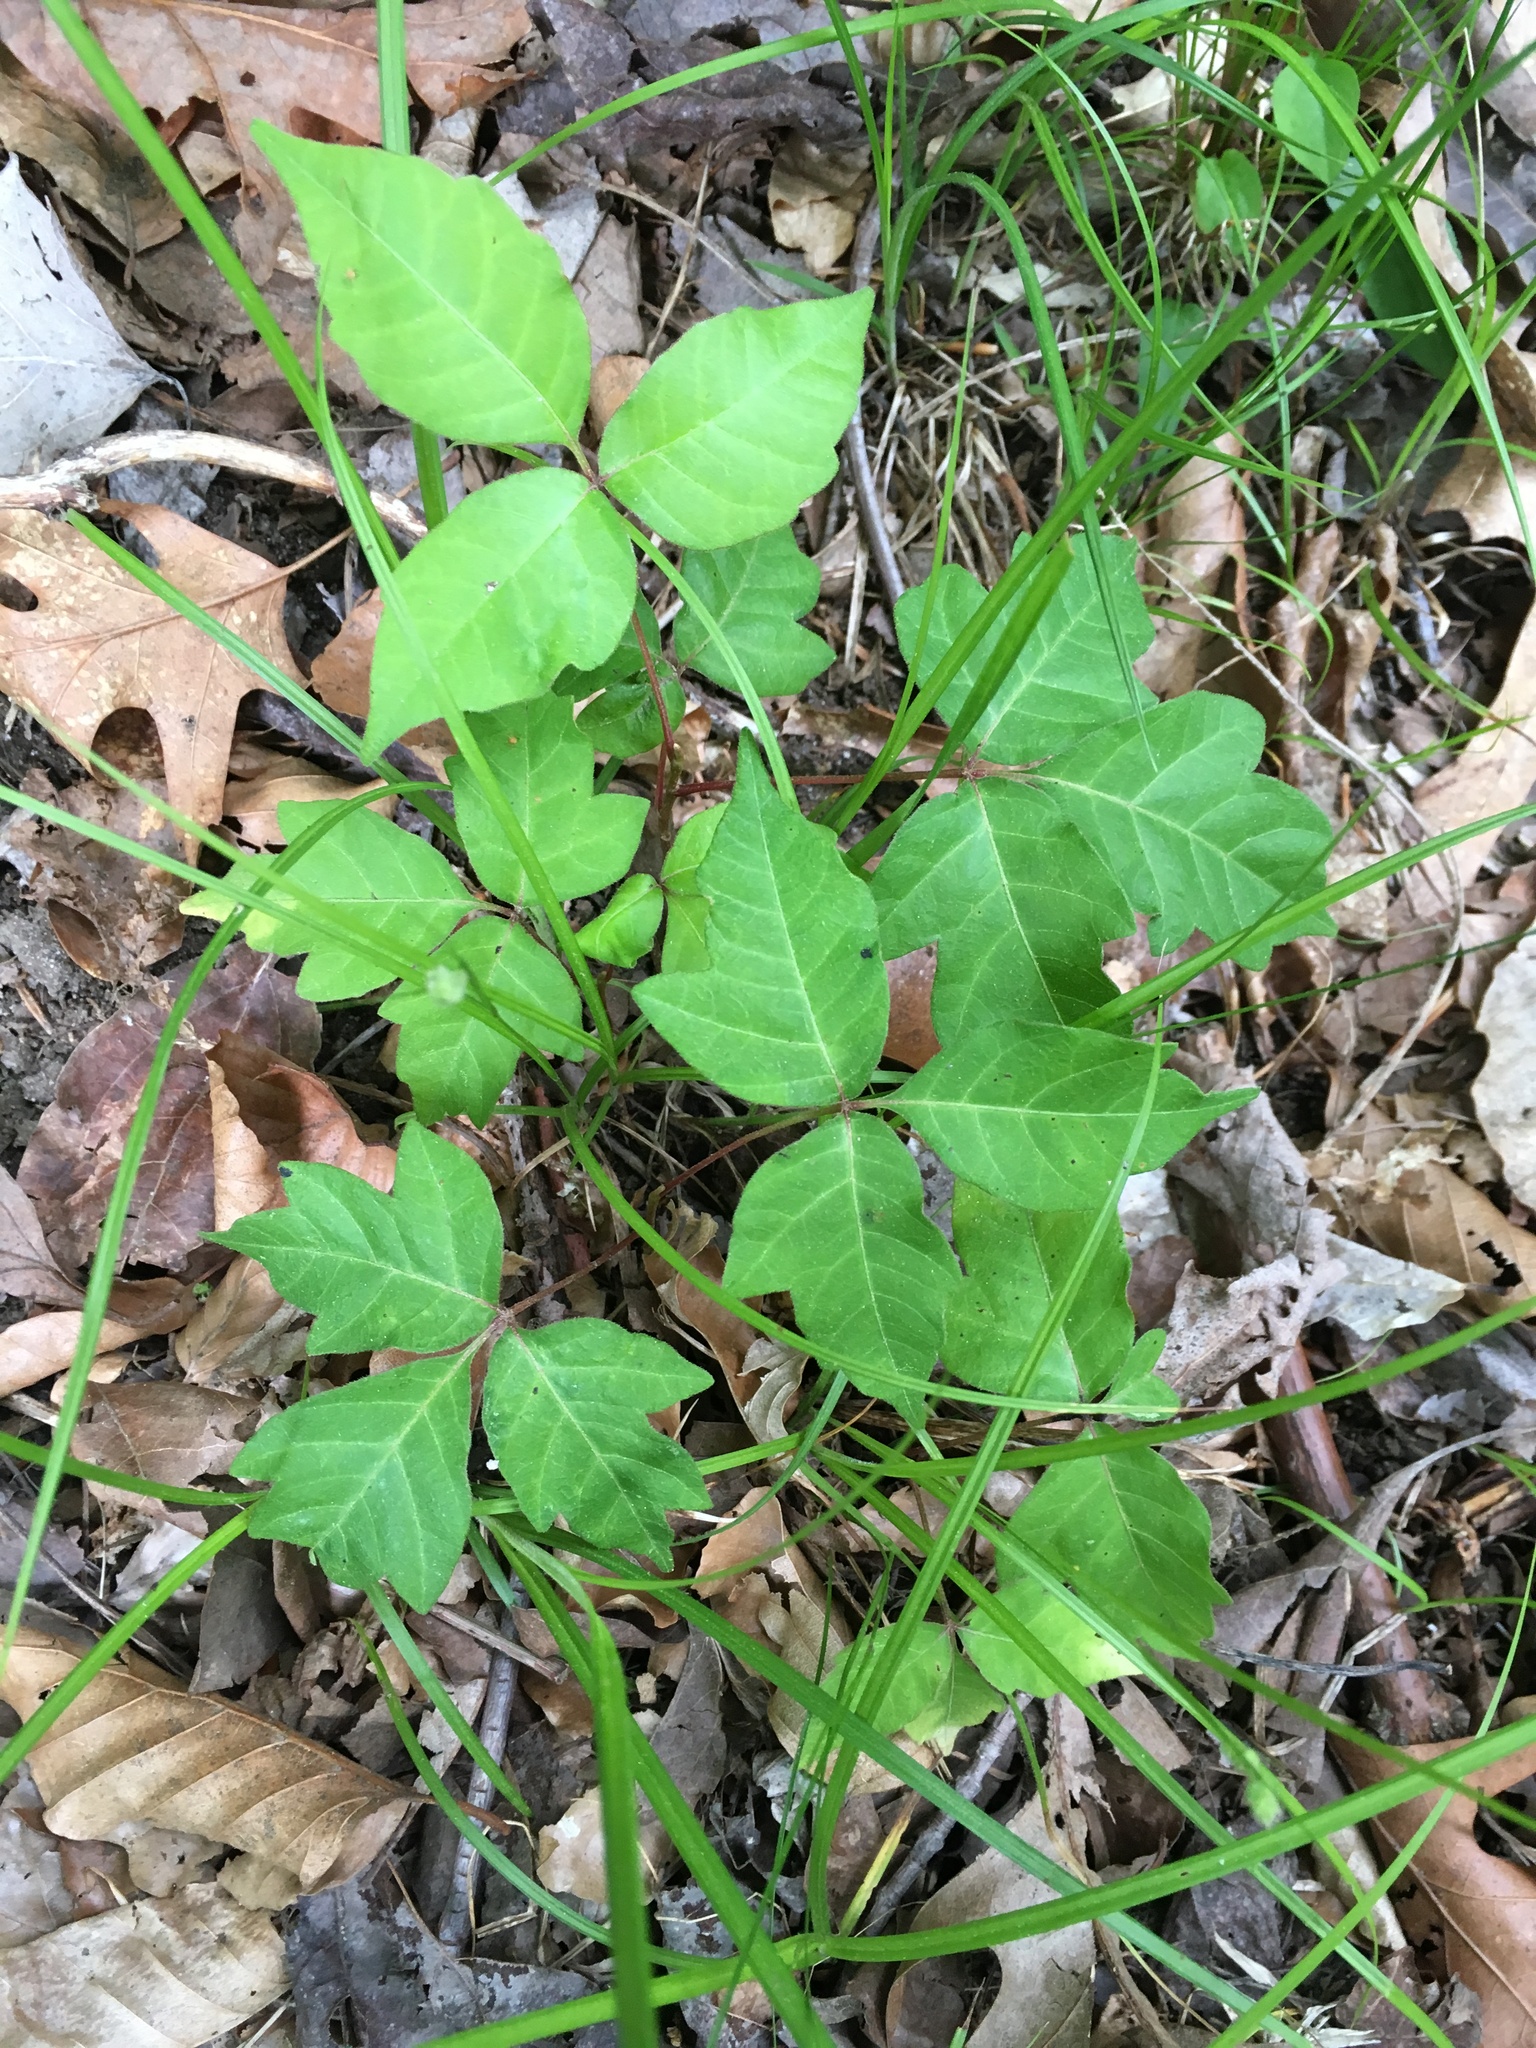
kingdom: Plantae
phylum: Tracheophyta
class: Magnoliopsida
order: Sapindales
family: Anacardiaceae
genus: Toxicodendron
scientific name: Toxicodendron radicans
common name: Poison ivy
